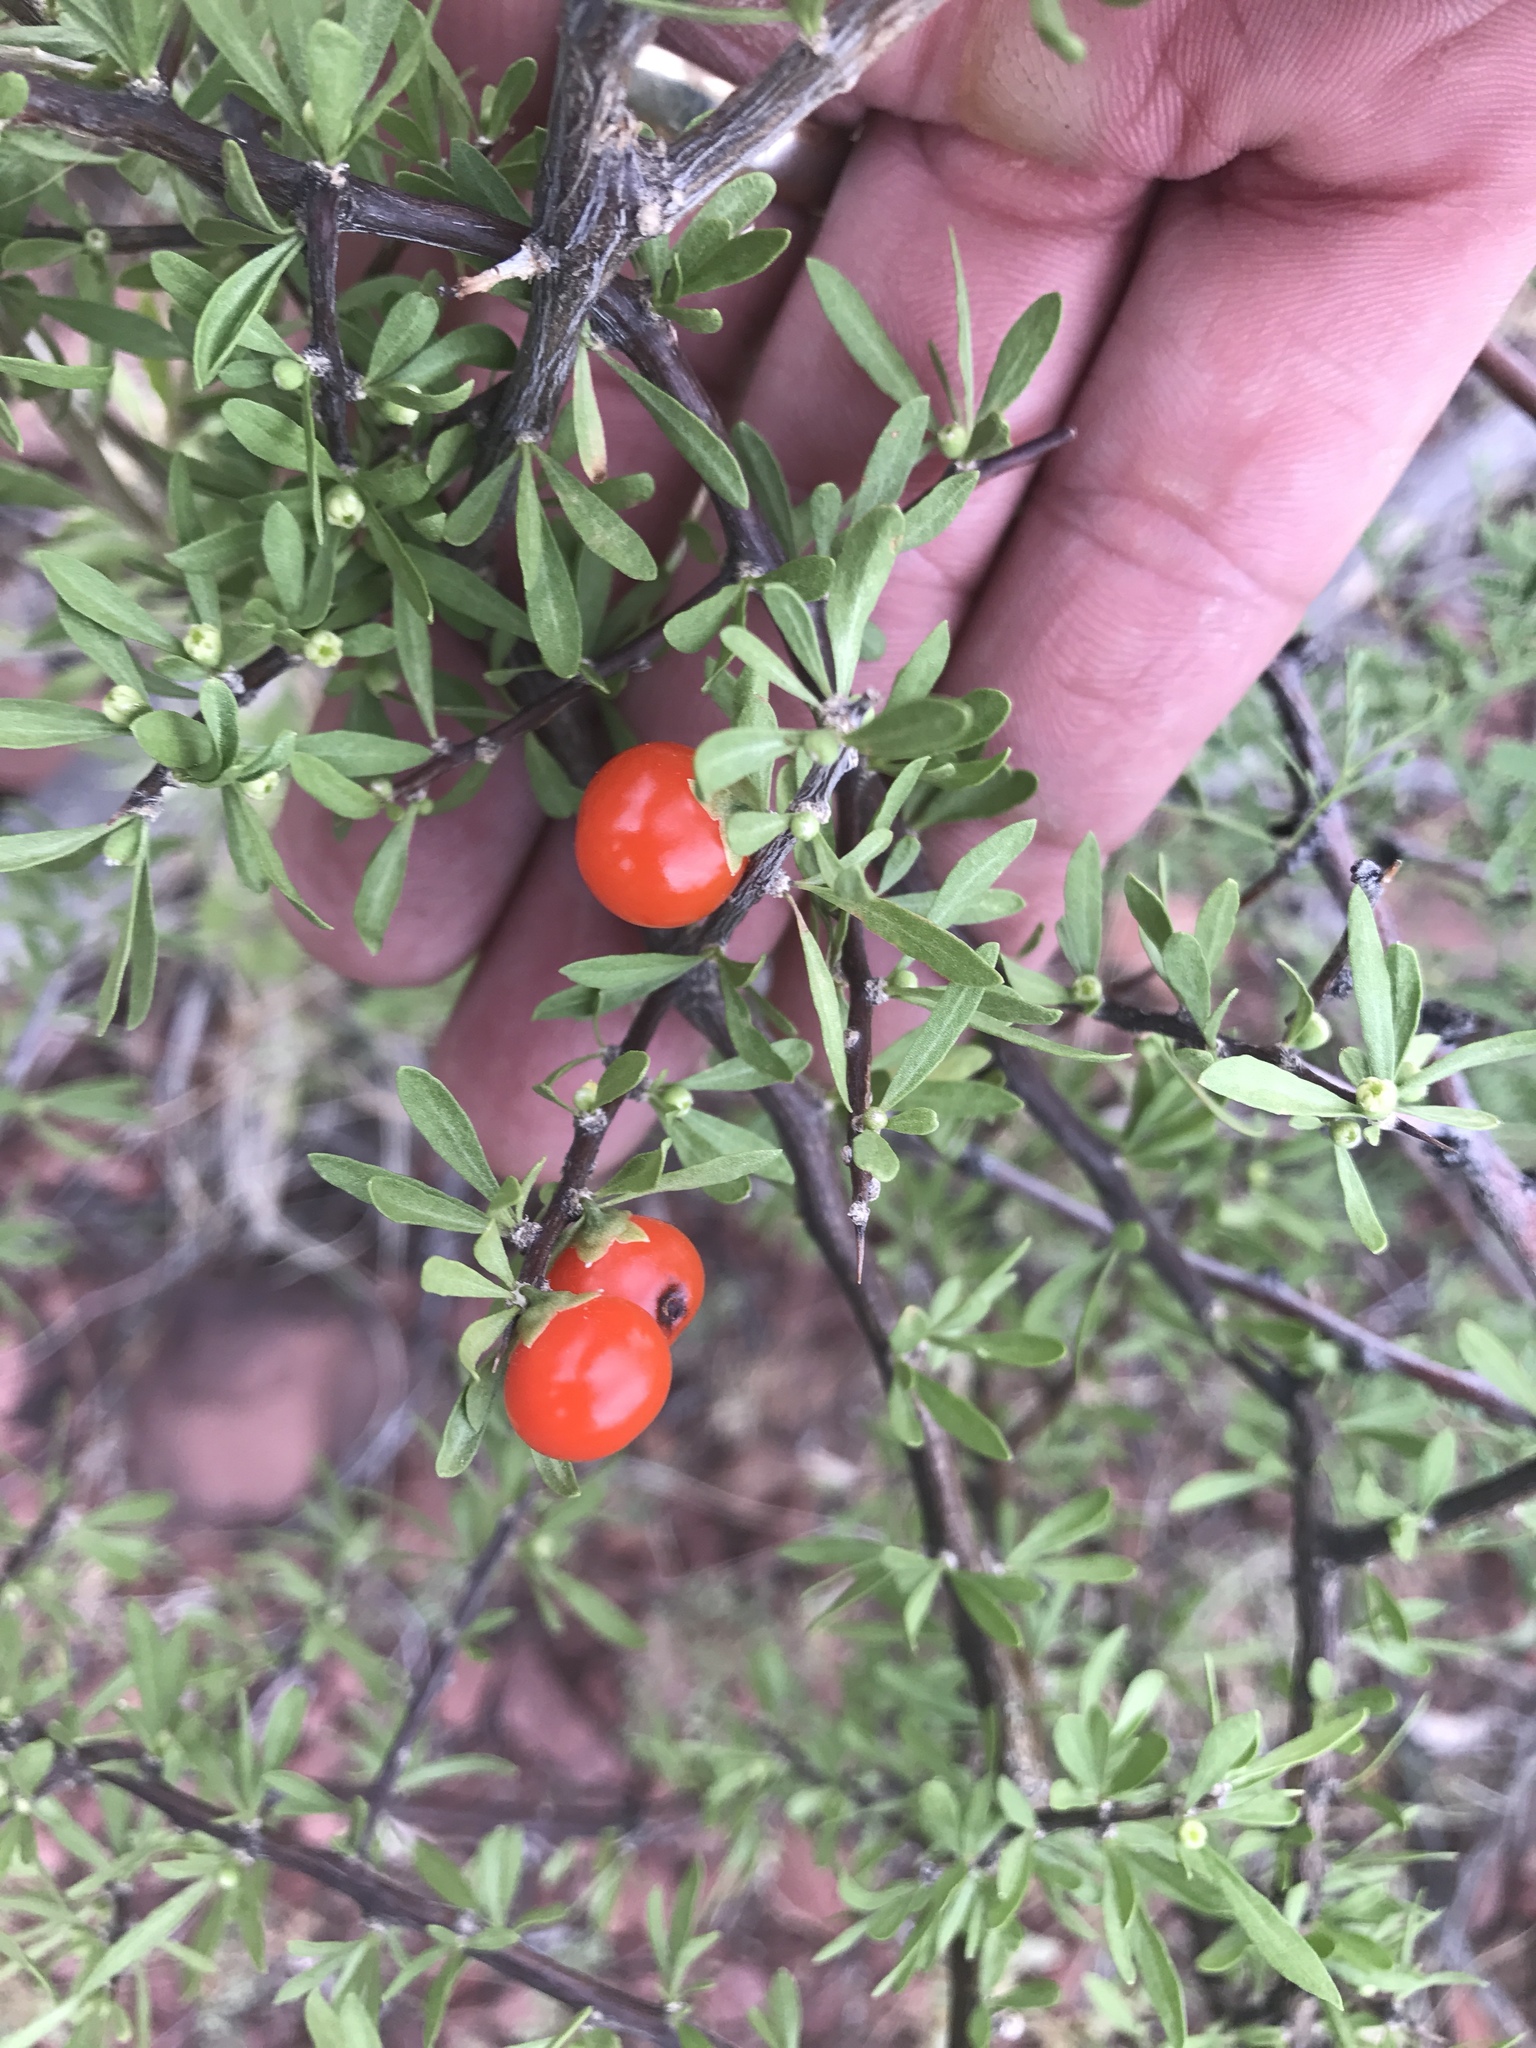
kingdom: Plantae
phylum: Tracheophyta
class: Magnoliopsida
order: Solanales
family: Solanaceae
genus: Lycium
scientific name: Lycium berlandieri
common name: Berlandier wolfberry
